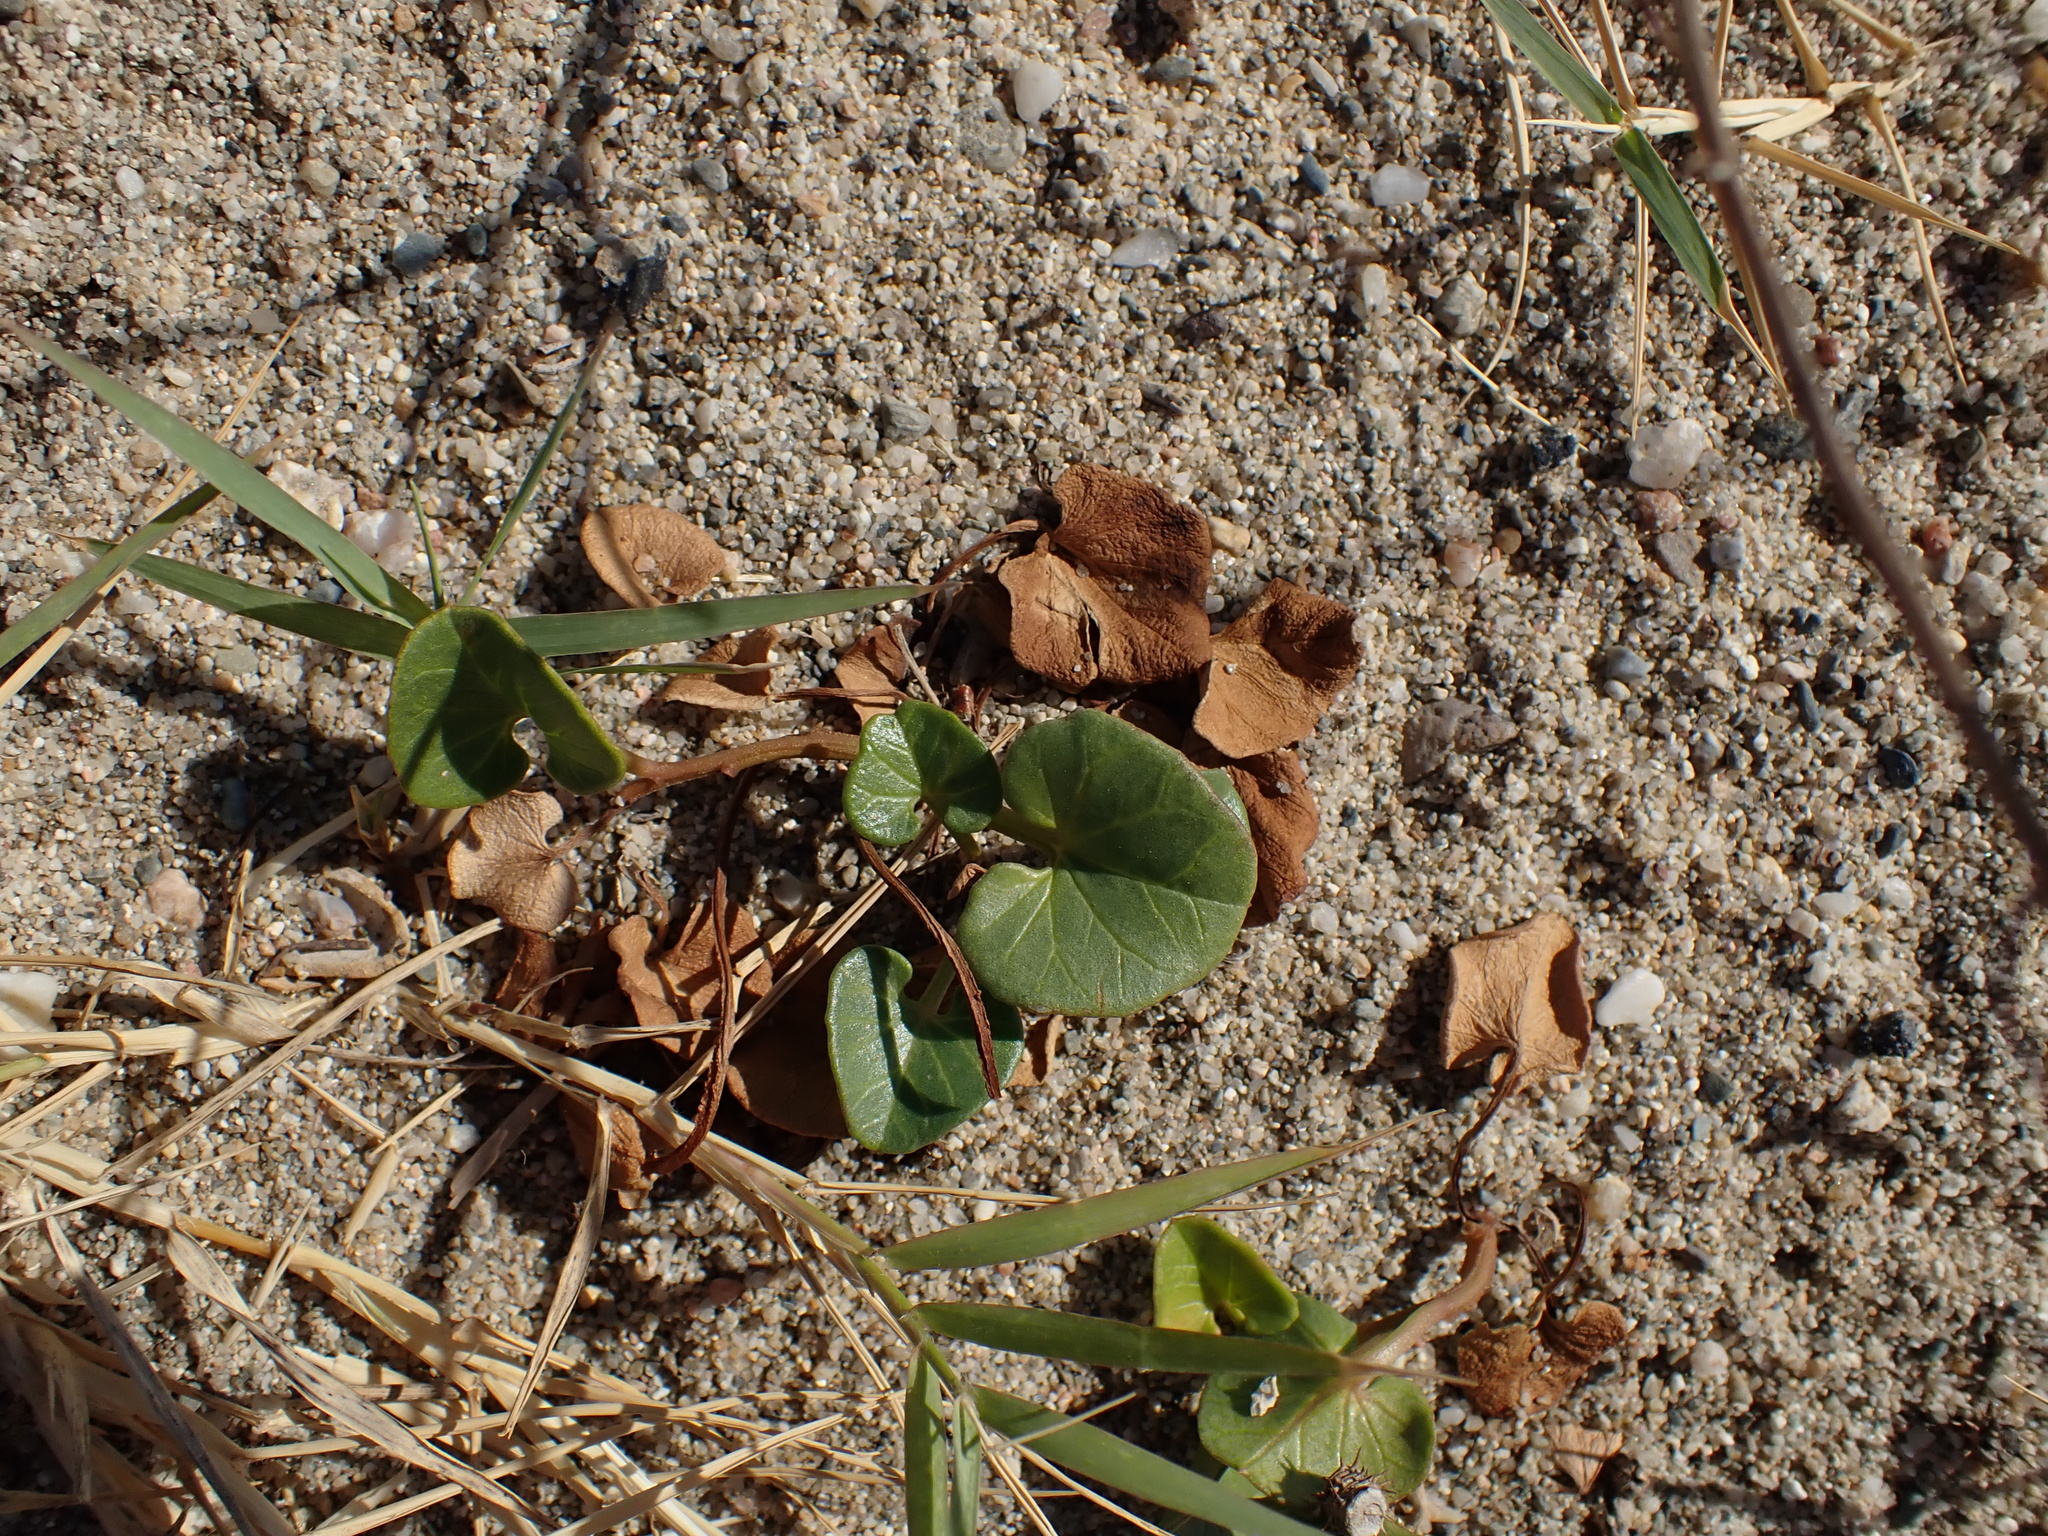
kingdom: Plantae
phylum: Tracheophyta
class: Magnoliopsida
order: Solanales
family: Convolvulaceae
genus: Calystegia
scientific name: Calystegia soldanella
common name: Sea bindweed
